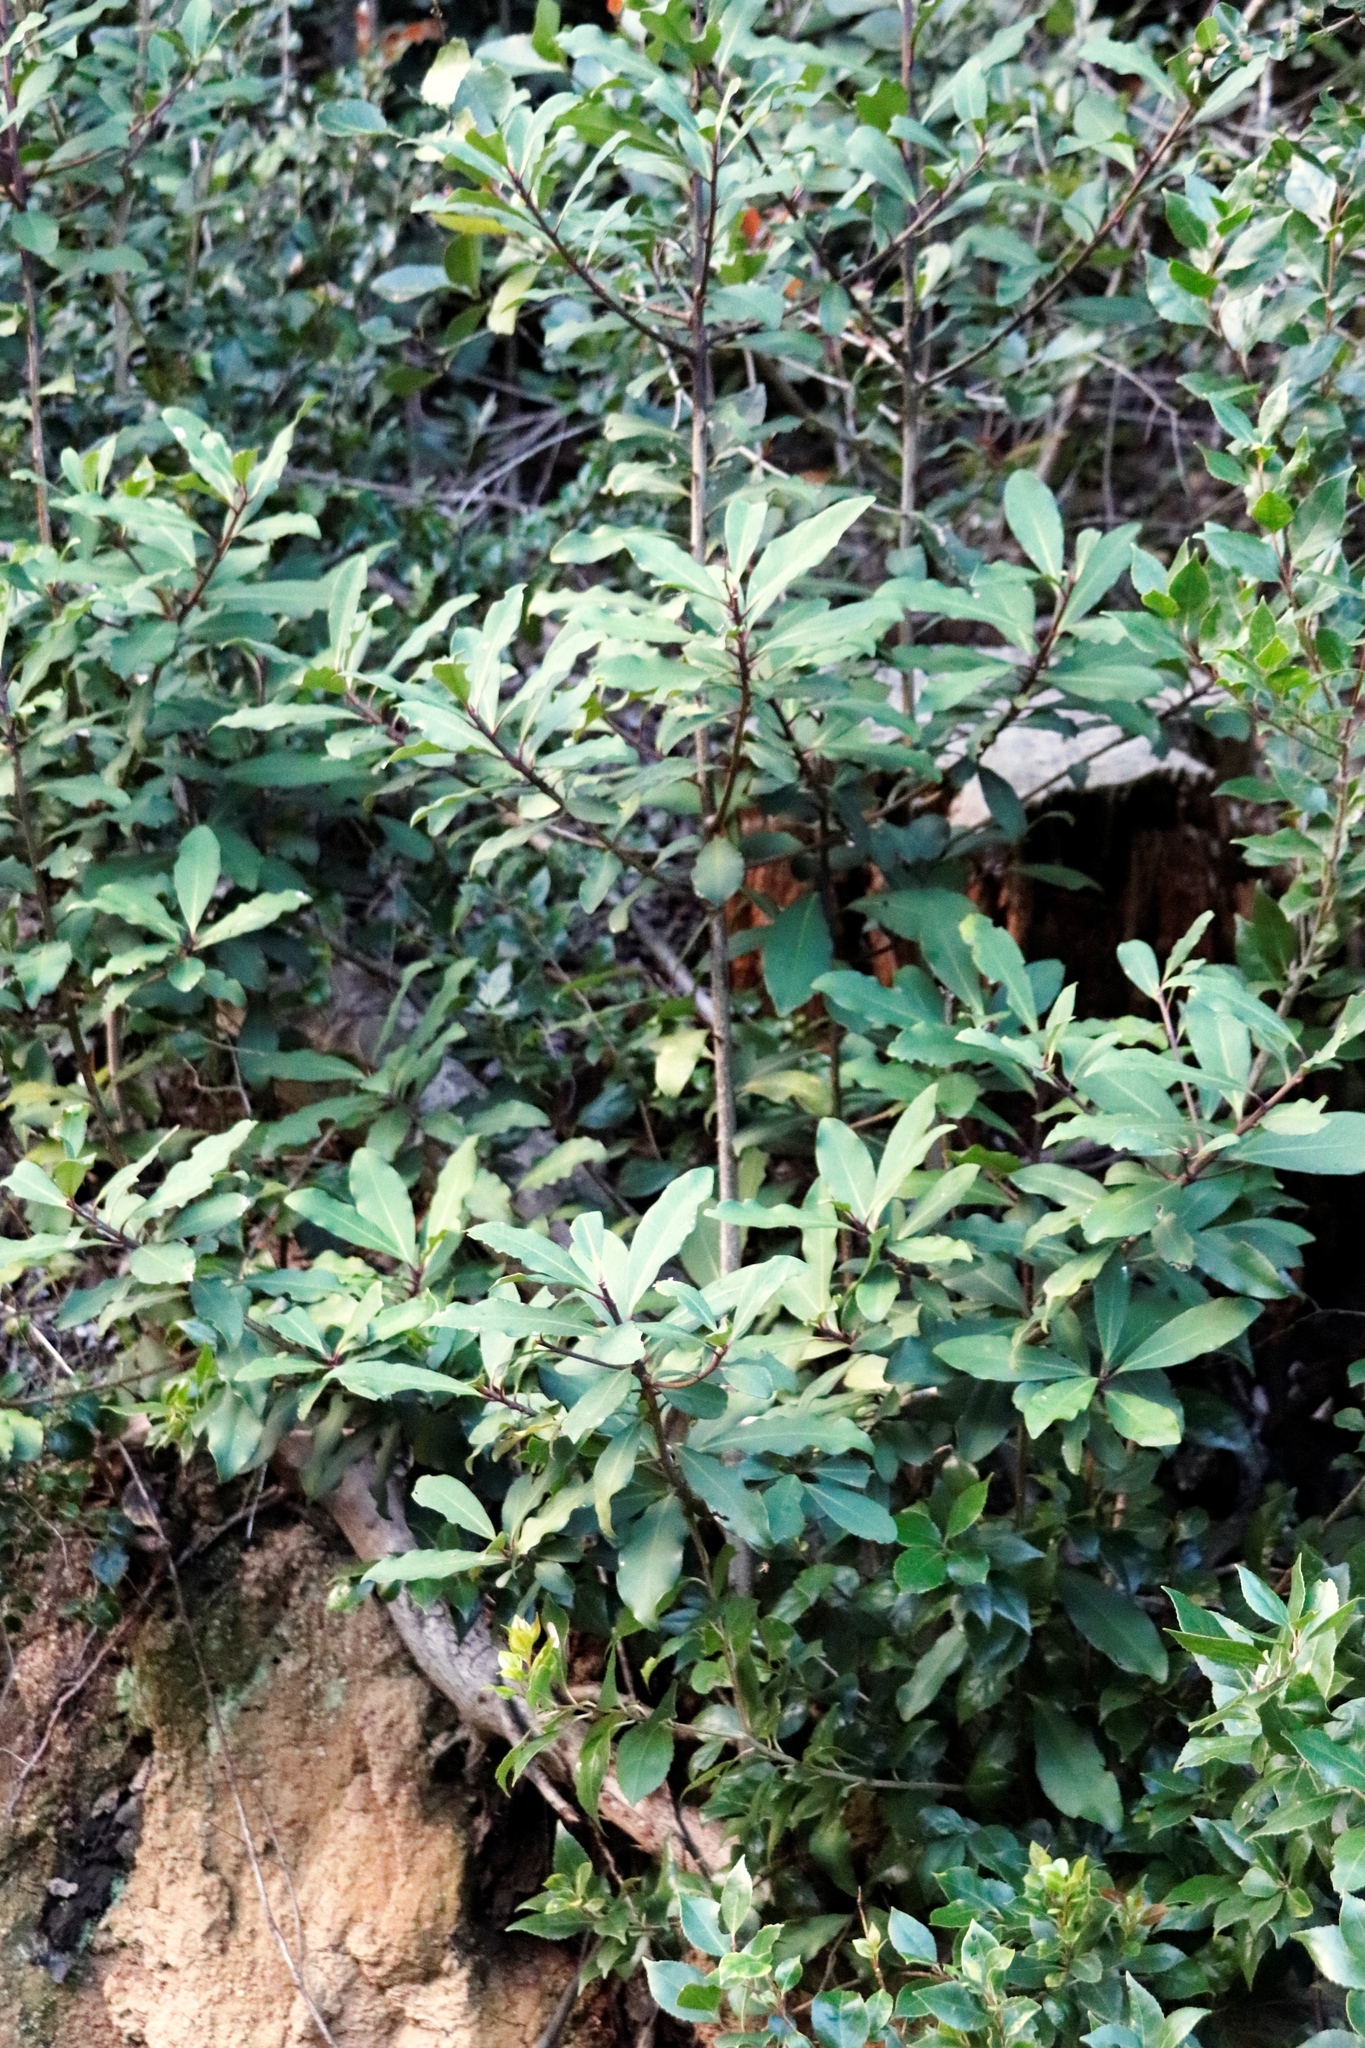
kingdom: Plantae
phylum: Tracheophyta
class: Magnoliopsida
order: Ericales
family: Primulaceae
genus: Myrsine
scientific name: Myrsine melanophloeos
